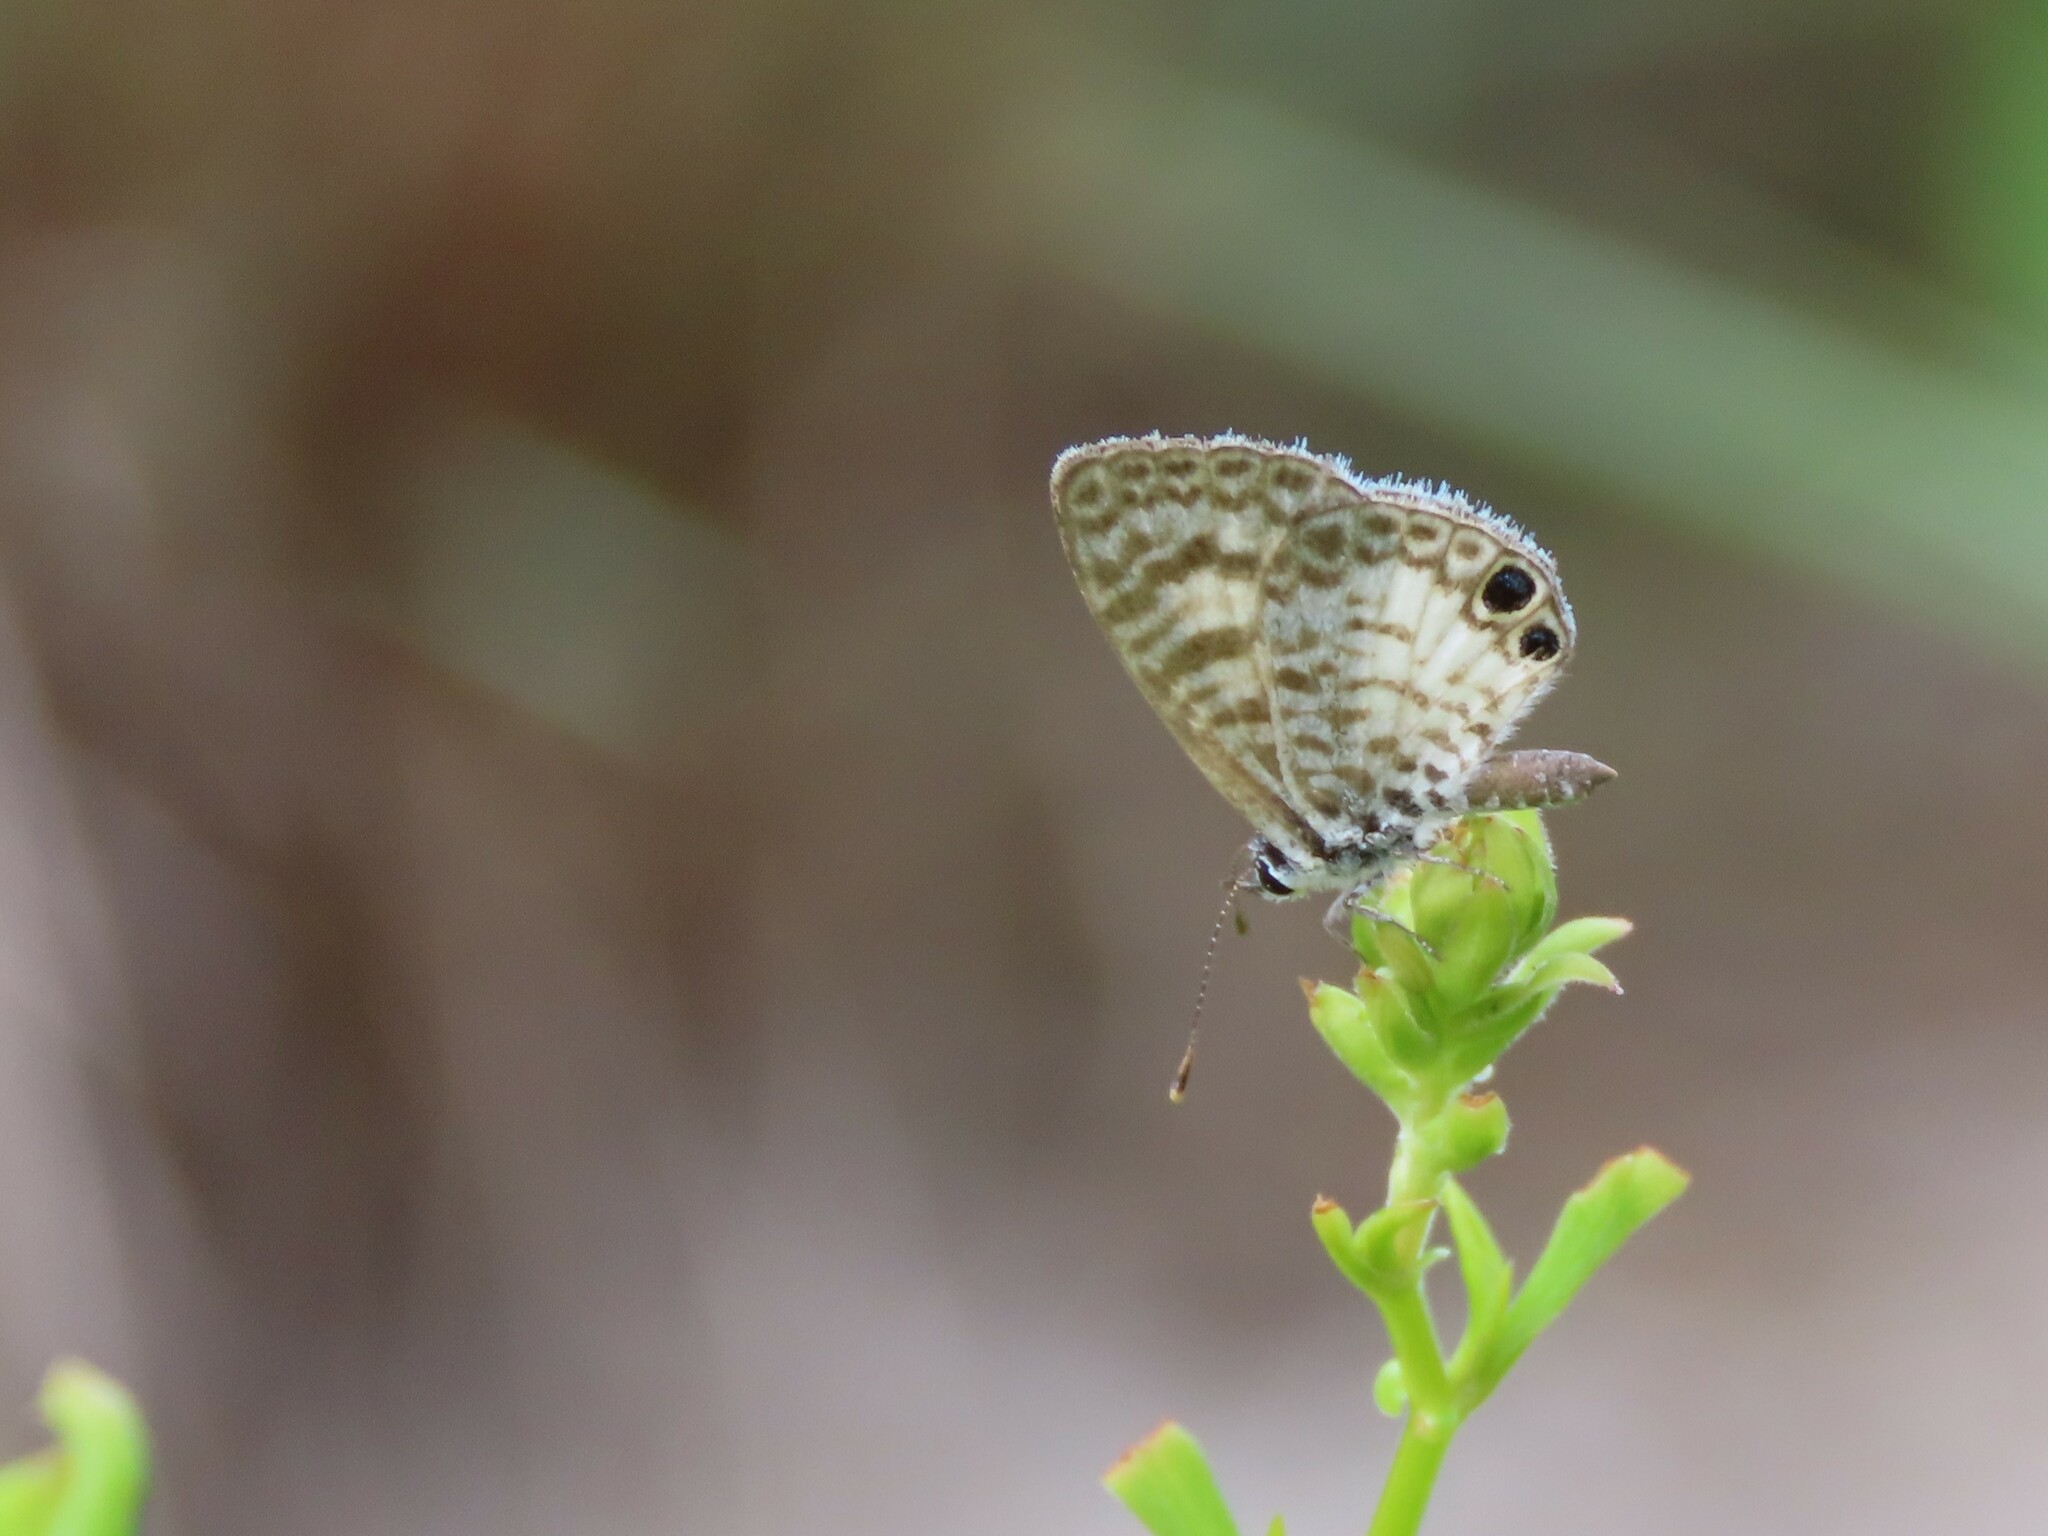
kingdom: Animalia
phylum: Arthropoda
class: Insecta
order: Lepidoptera
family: Lycaenidae
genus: Leptotes
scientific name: Leptotes cassius
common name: Cassius blue
